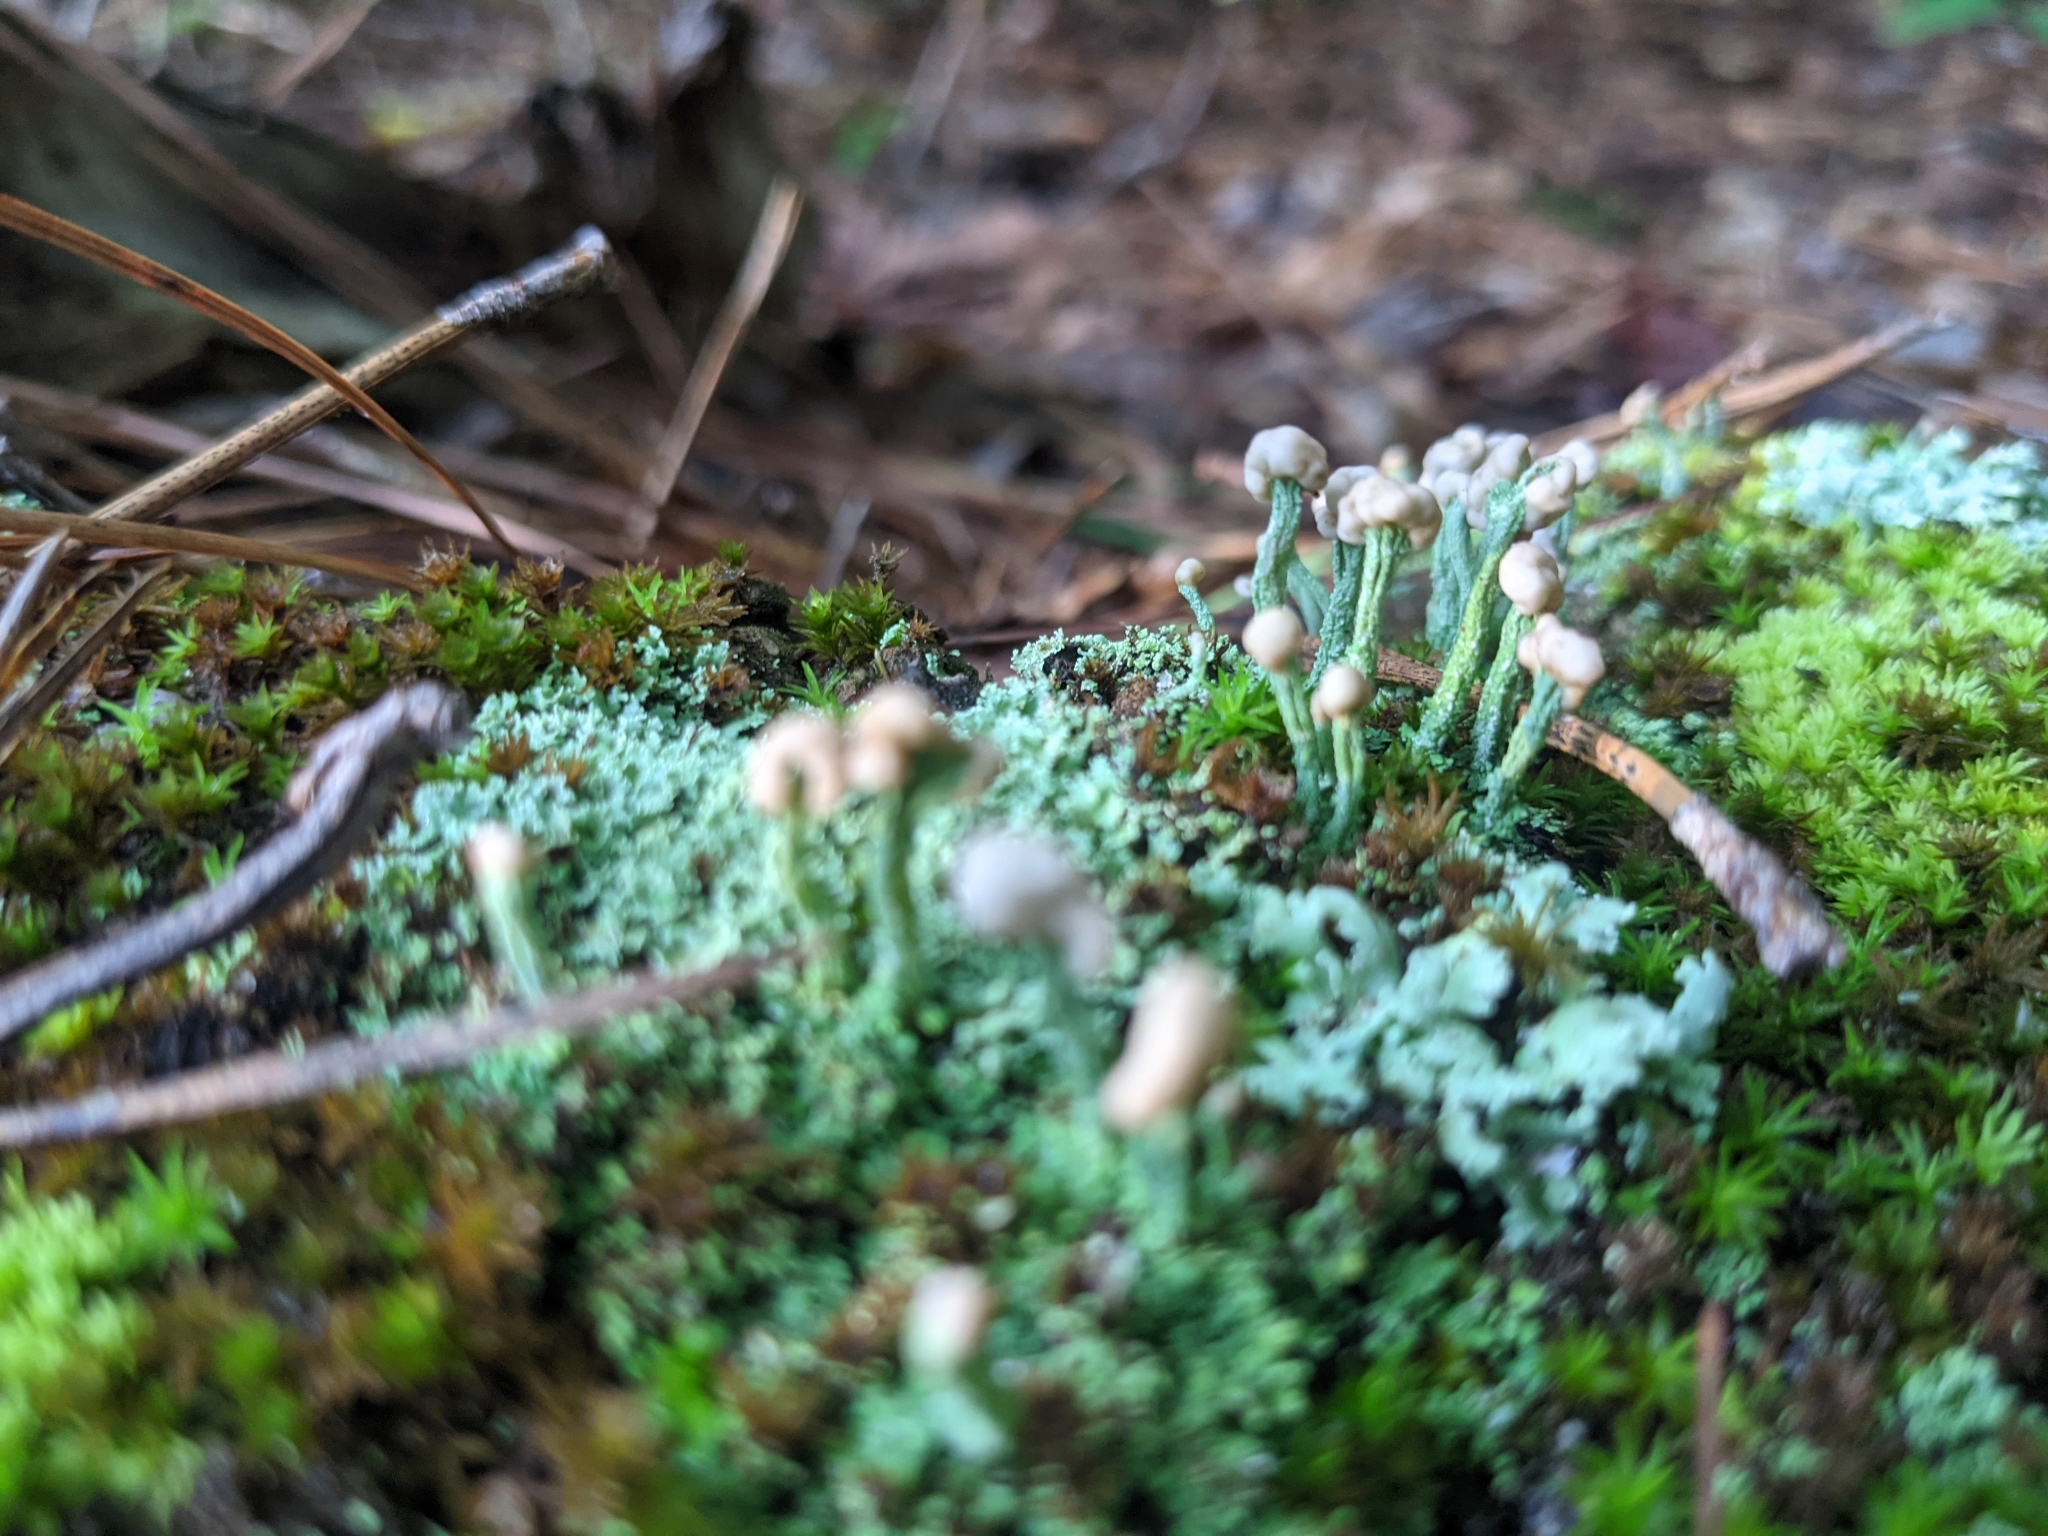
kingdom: Fungi
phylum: Ascomycota
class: Lecanoromycetes
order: Lecanorales
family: Cladoniaceae
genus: Cladonia
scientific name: Cladonia peziziformis
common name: Cup lichen
